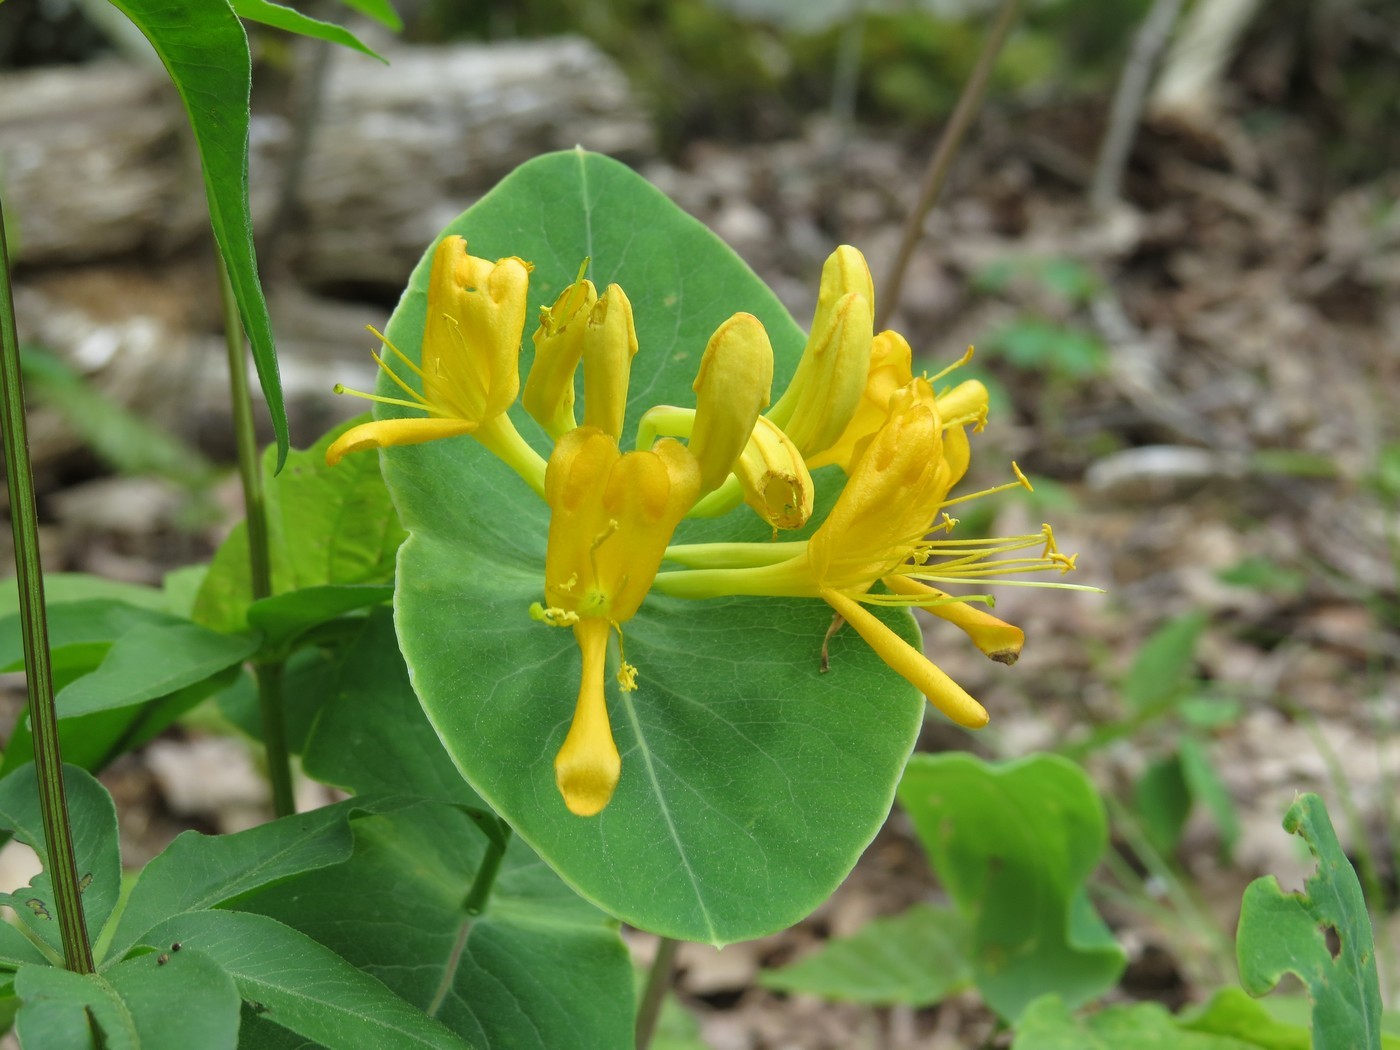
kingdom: Plantae
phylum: Tracheophyta
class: Magnoliopsida
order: Dipsacales
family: Caprifoliaceae
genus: Lonicera
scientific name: Lonicera flava
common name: Yellow honeysuckle
